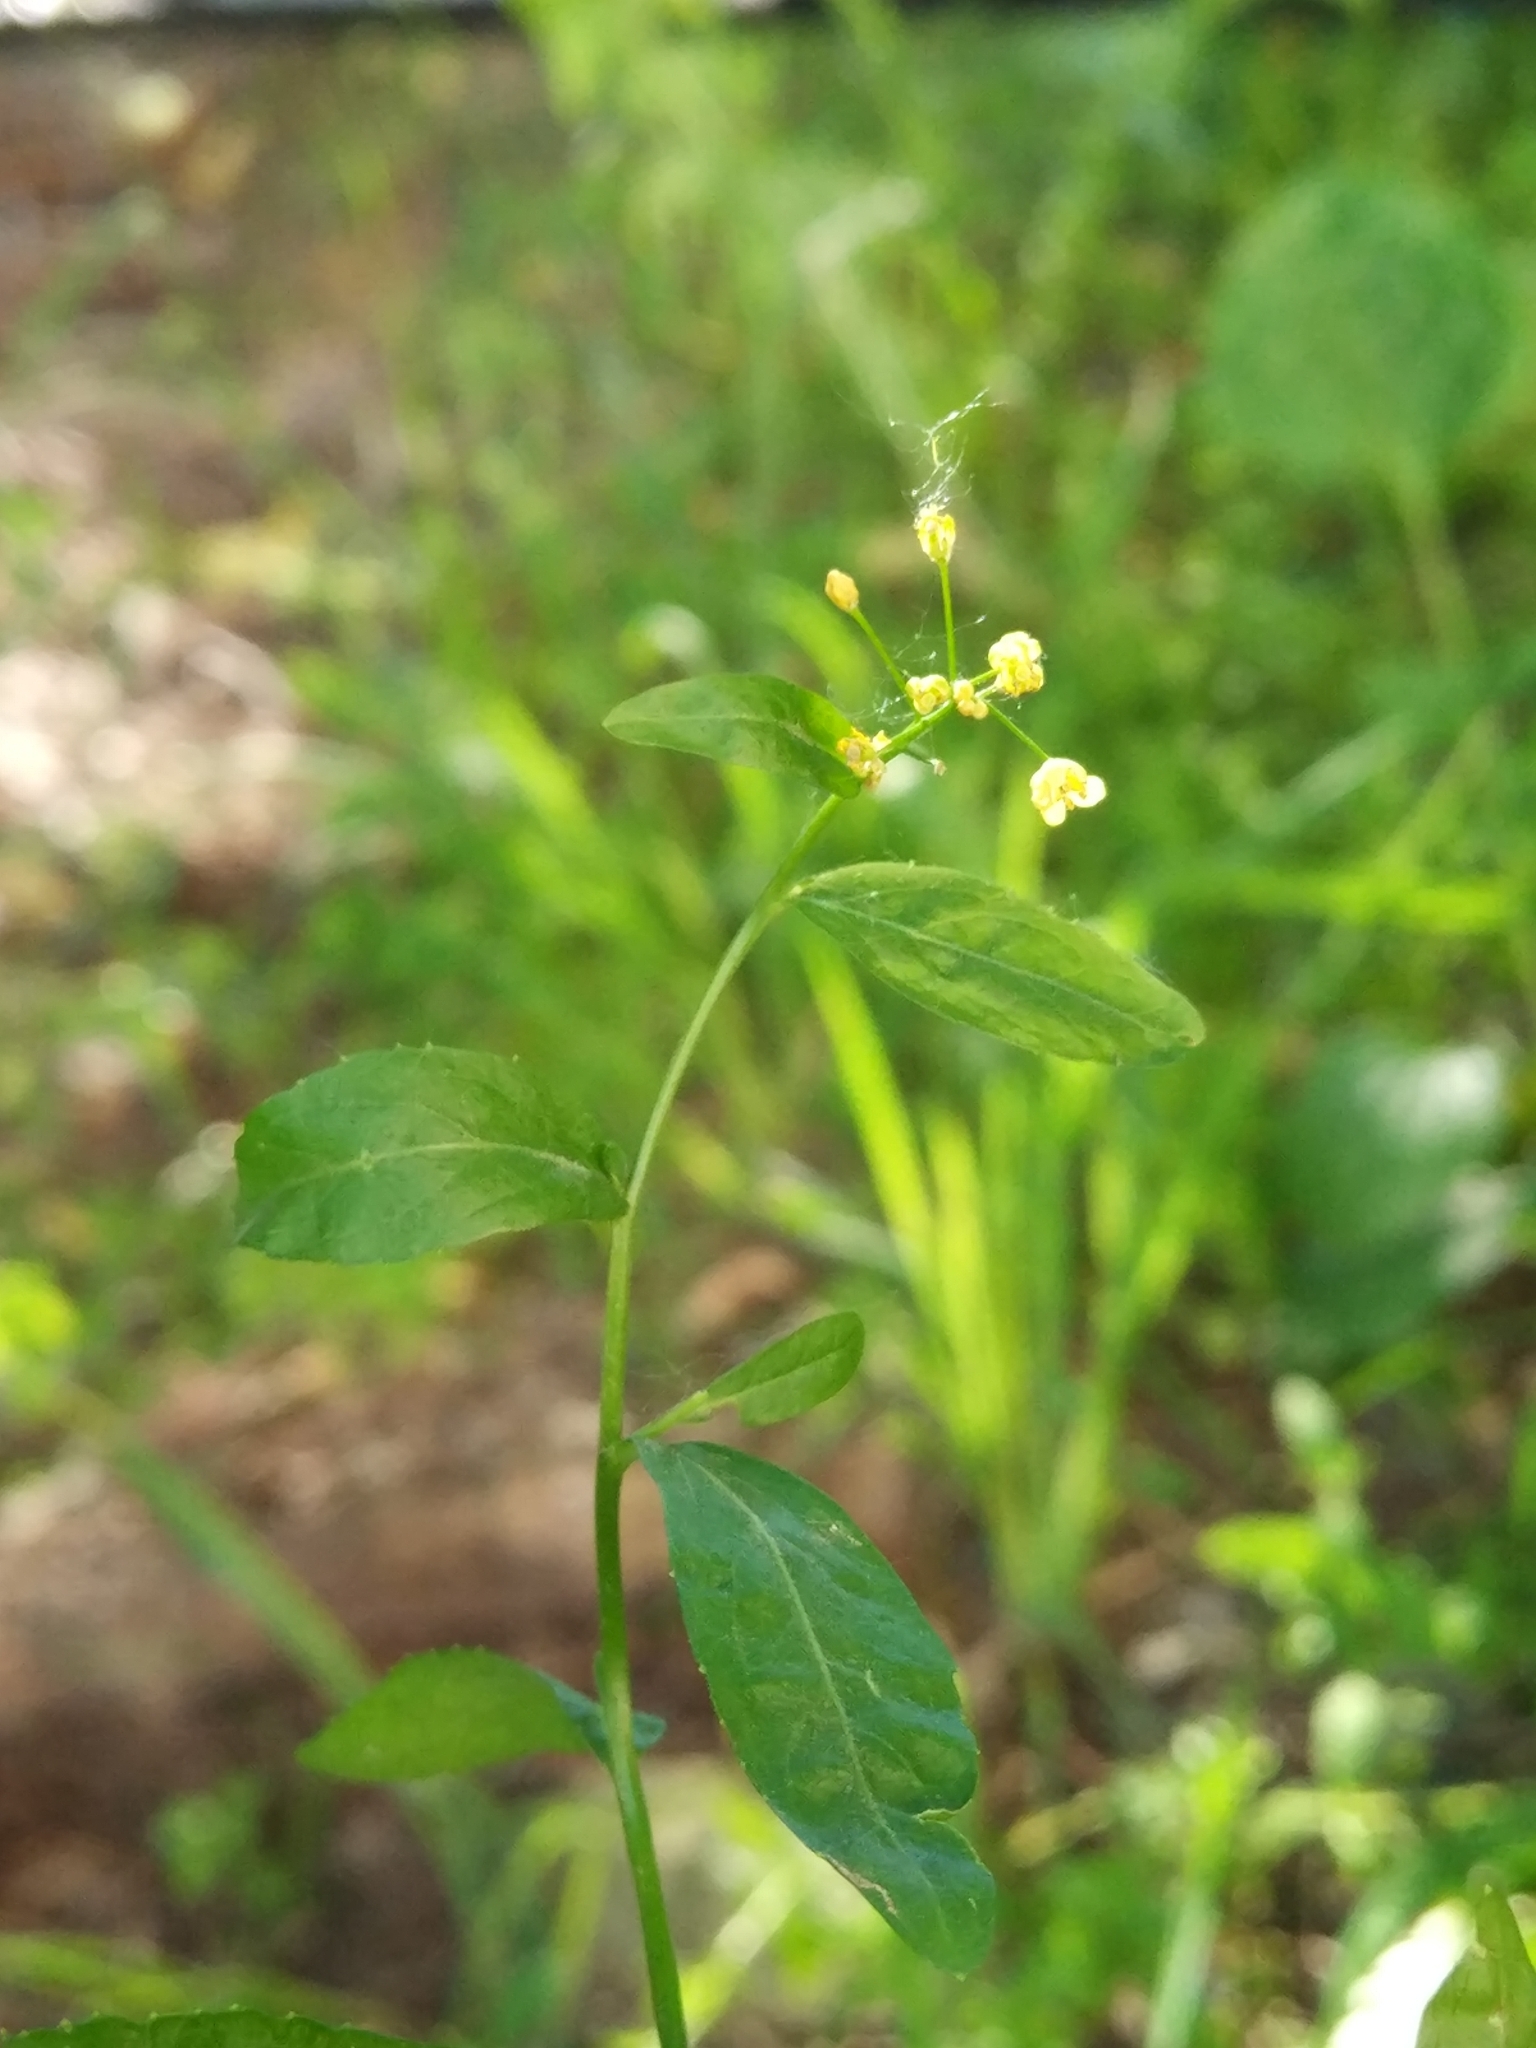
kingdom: Plantae
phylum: Tracheophyta
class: Magnoliopsida
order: Brassicales
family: Brassicaceae
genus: Rorippa
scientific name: Rorippa austriaca
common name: Austrian yellow-cress
